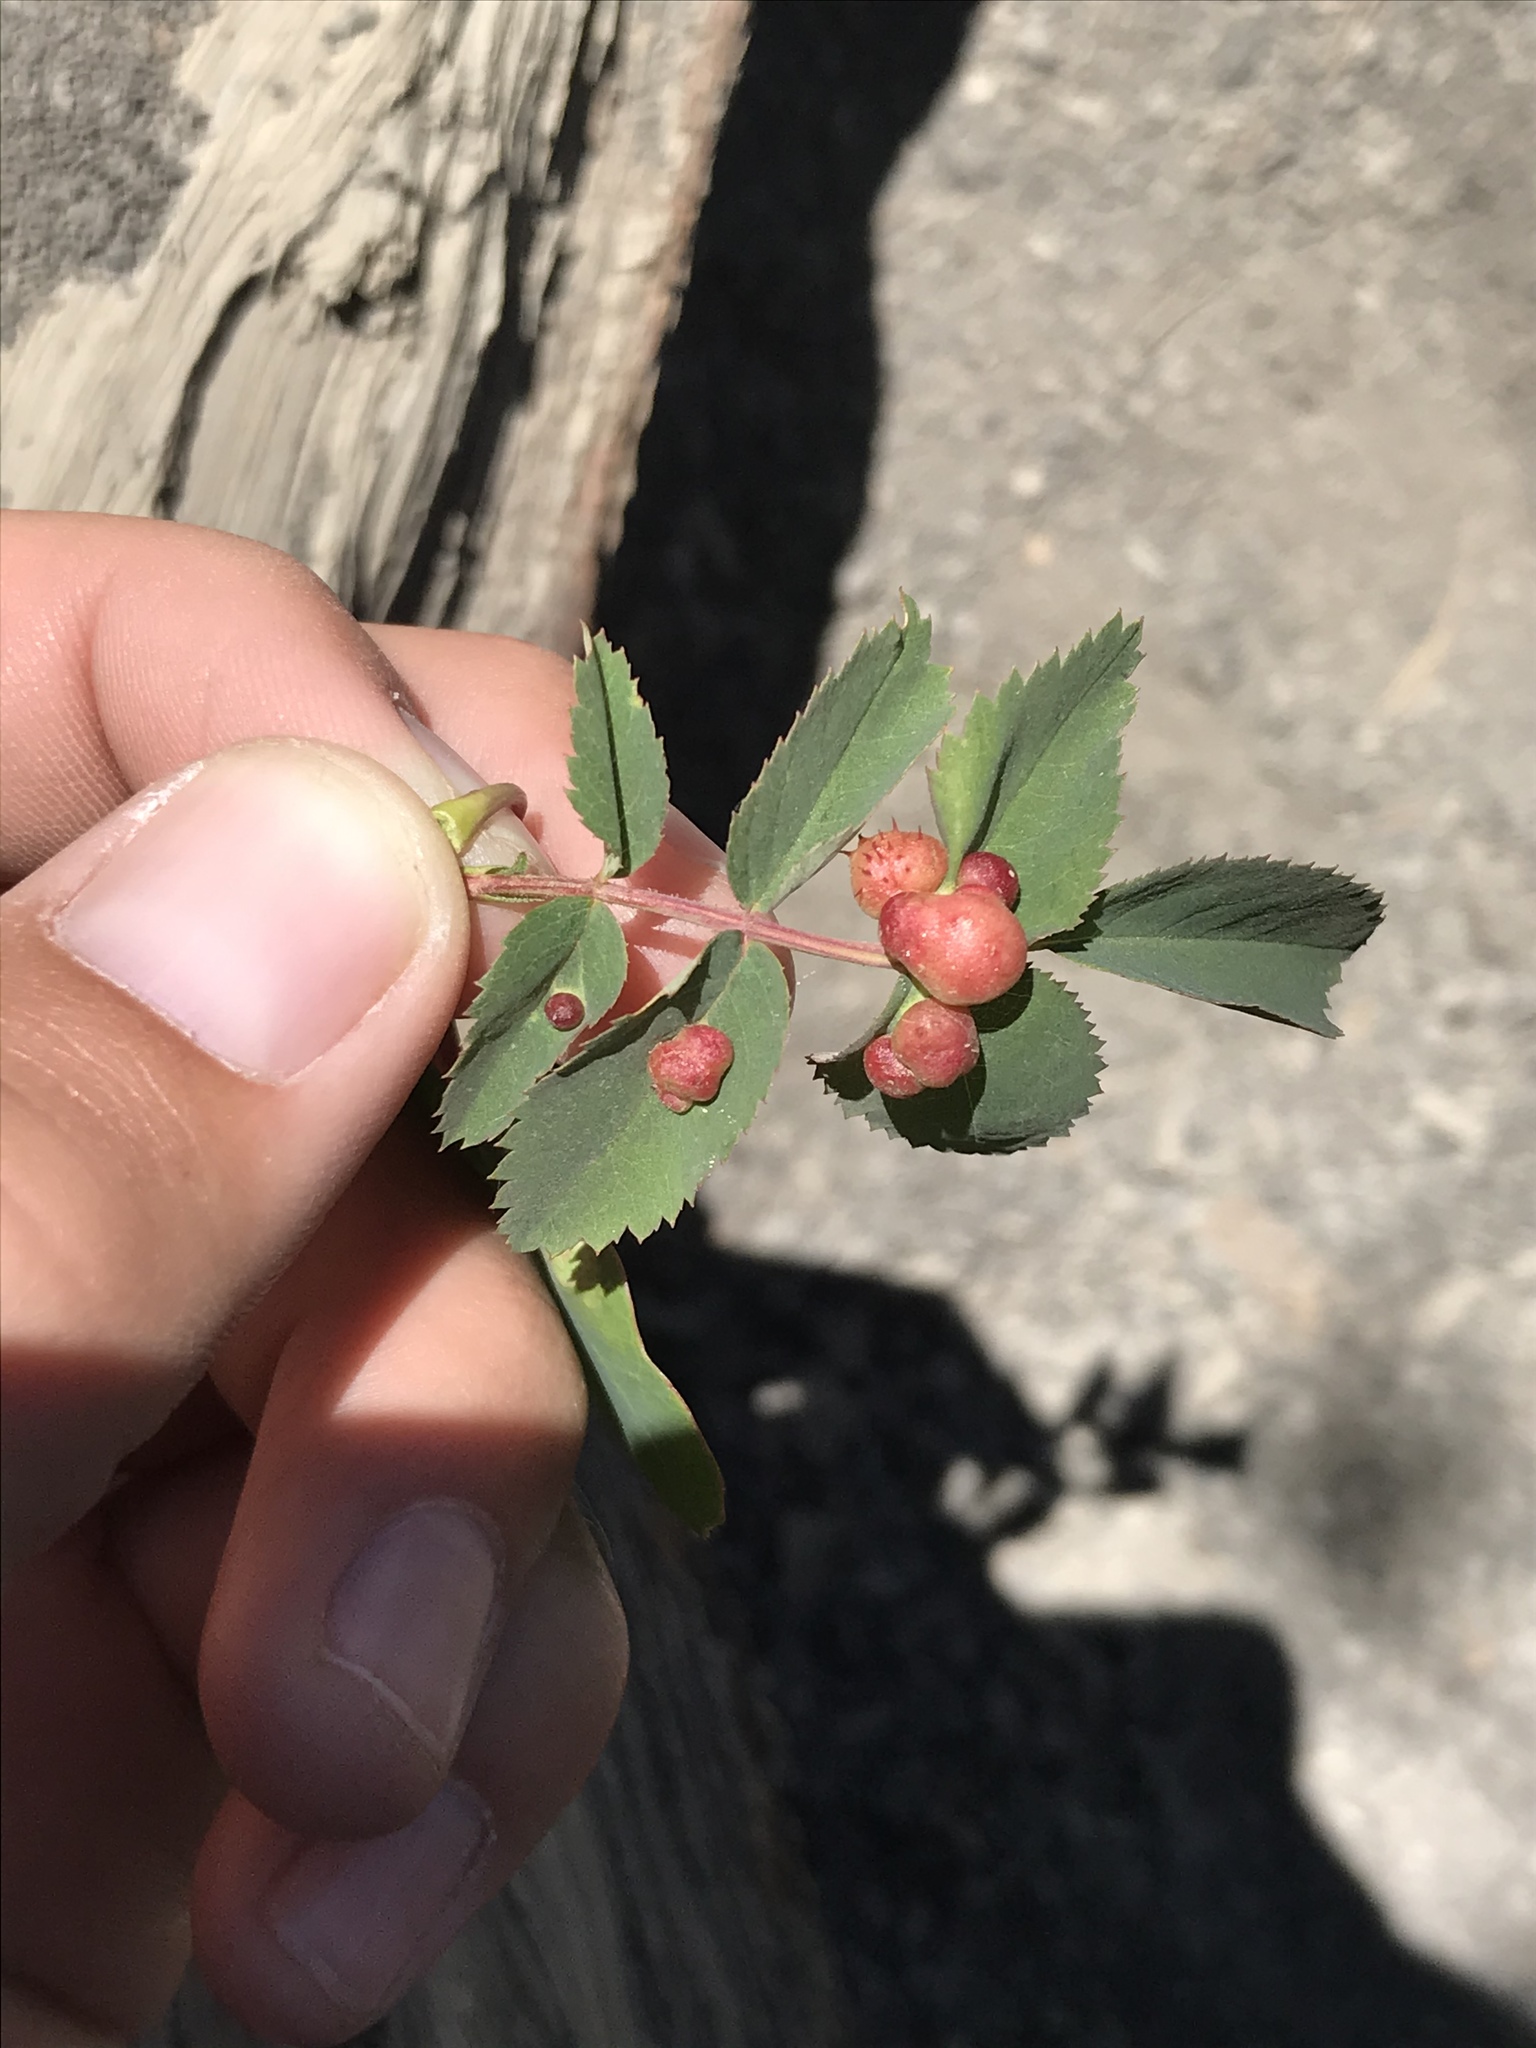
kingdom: Animalia
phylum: Arthropoda
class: Insecta
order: Hymenoptera
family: Cynipidae
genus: Diplolepis
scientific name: Diplolepis polita
